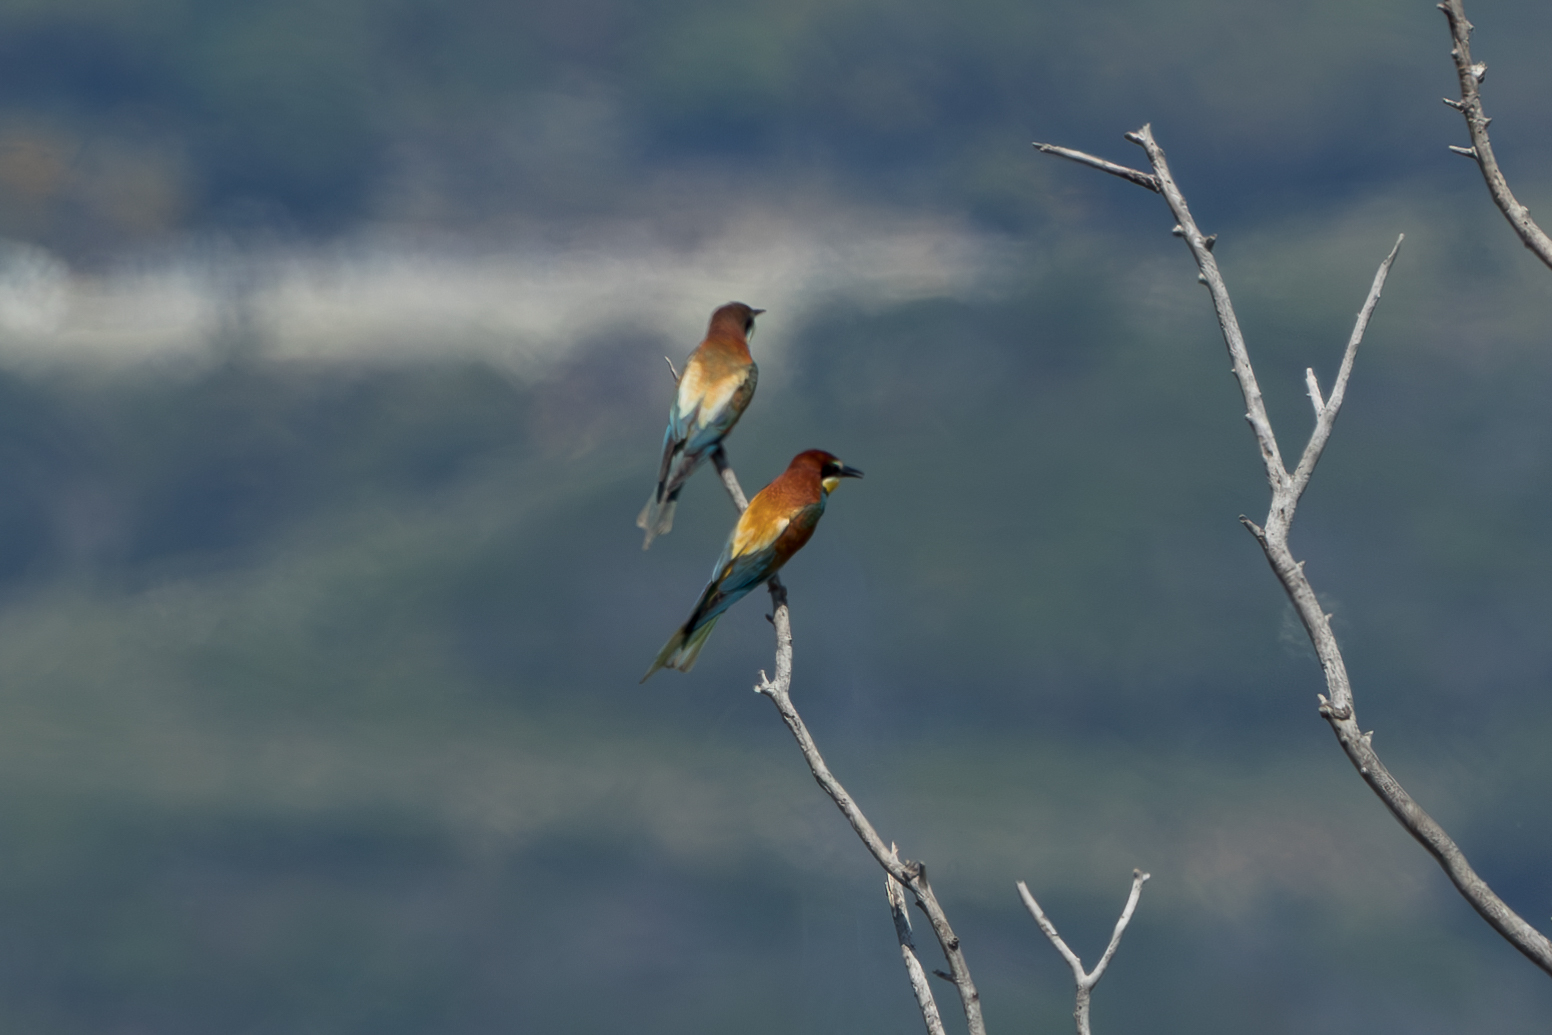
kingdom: Animalia
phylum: Chordata
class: Aves
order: Coraciiformes
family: Meropidae
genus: Merops
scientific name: Merops apiaster
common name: European bee-eater
